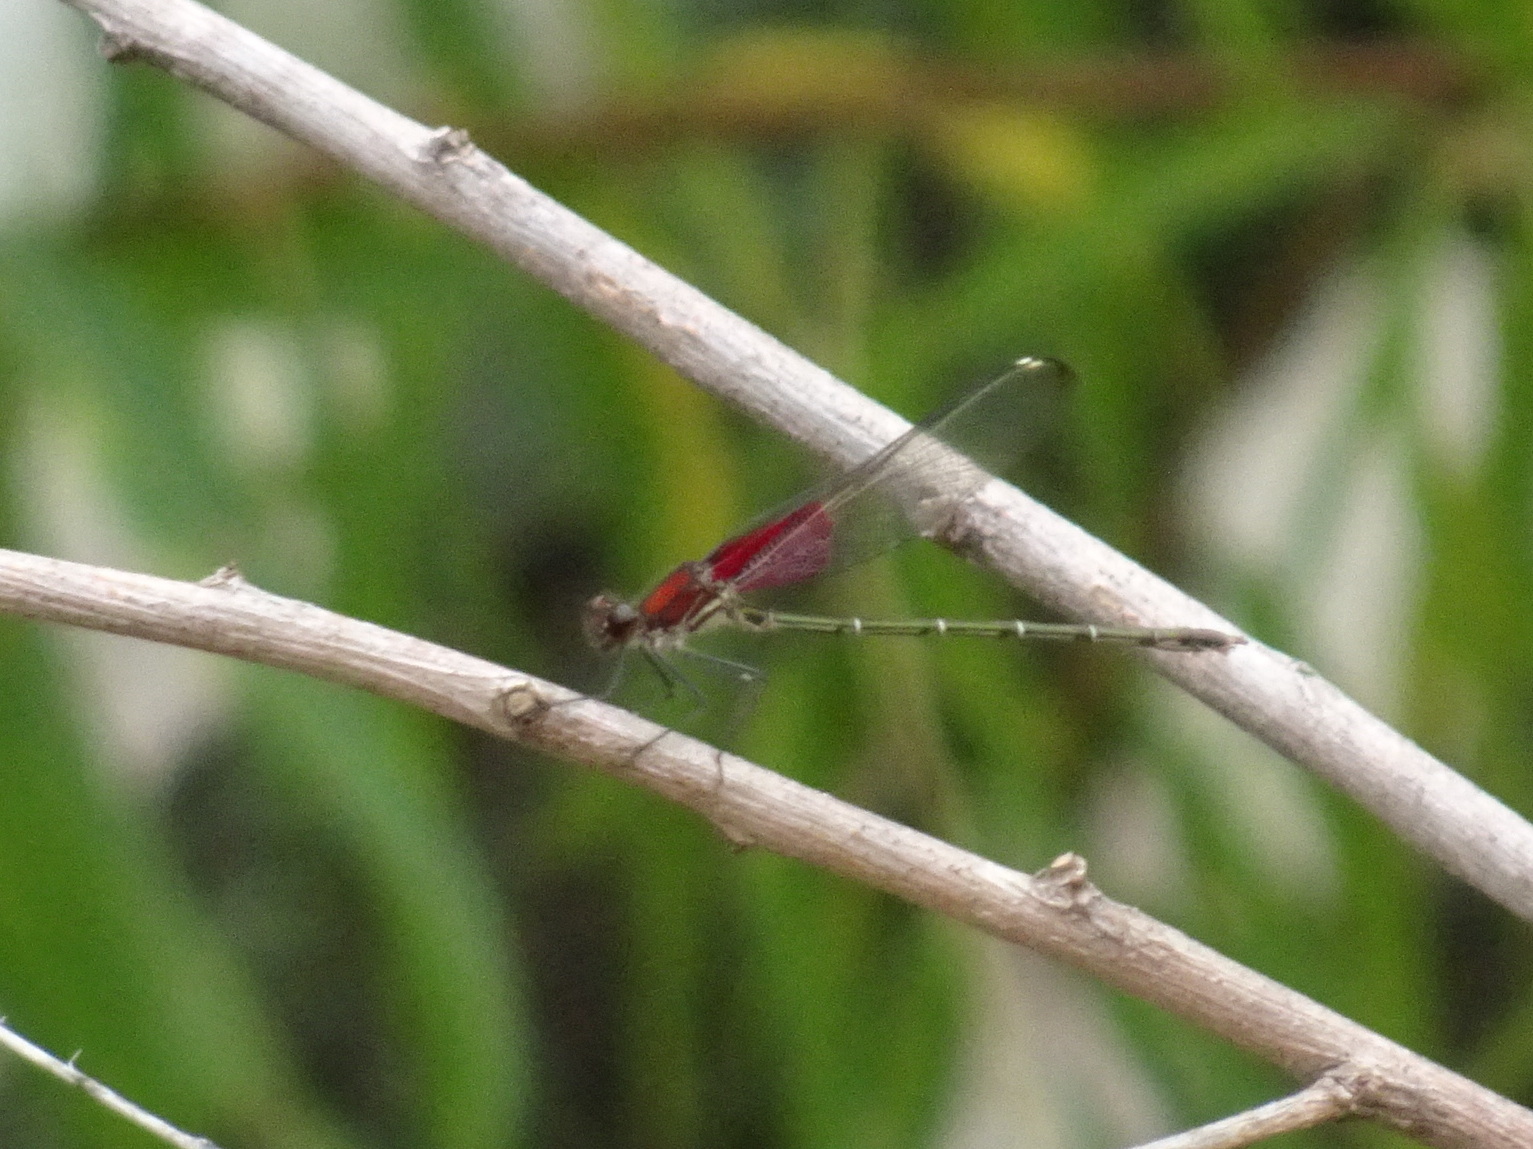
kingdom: Animalia
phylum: Arthropoda
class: Insecta
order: Odonata
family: Calopterygidae
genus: Hetaerina
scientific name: Hetaerina americana
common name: American rubyspot
